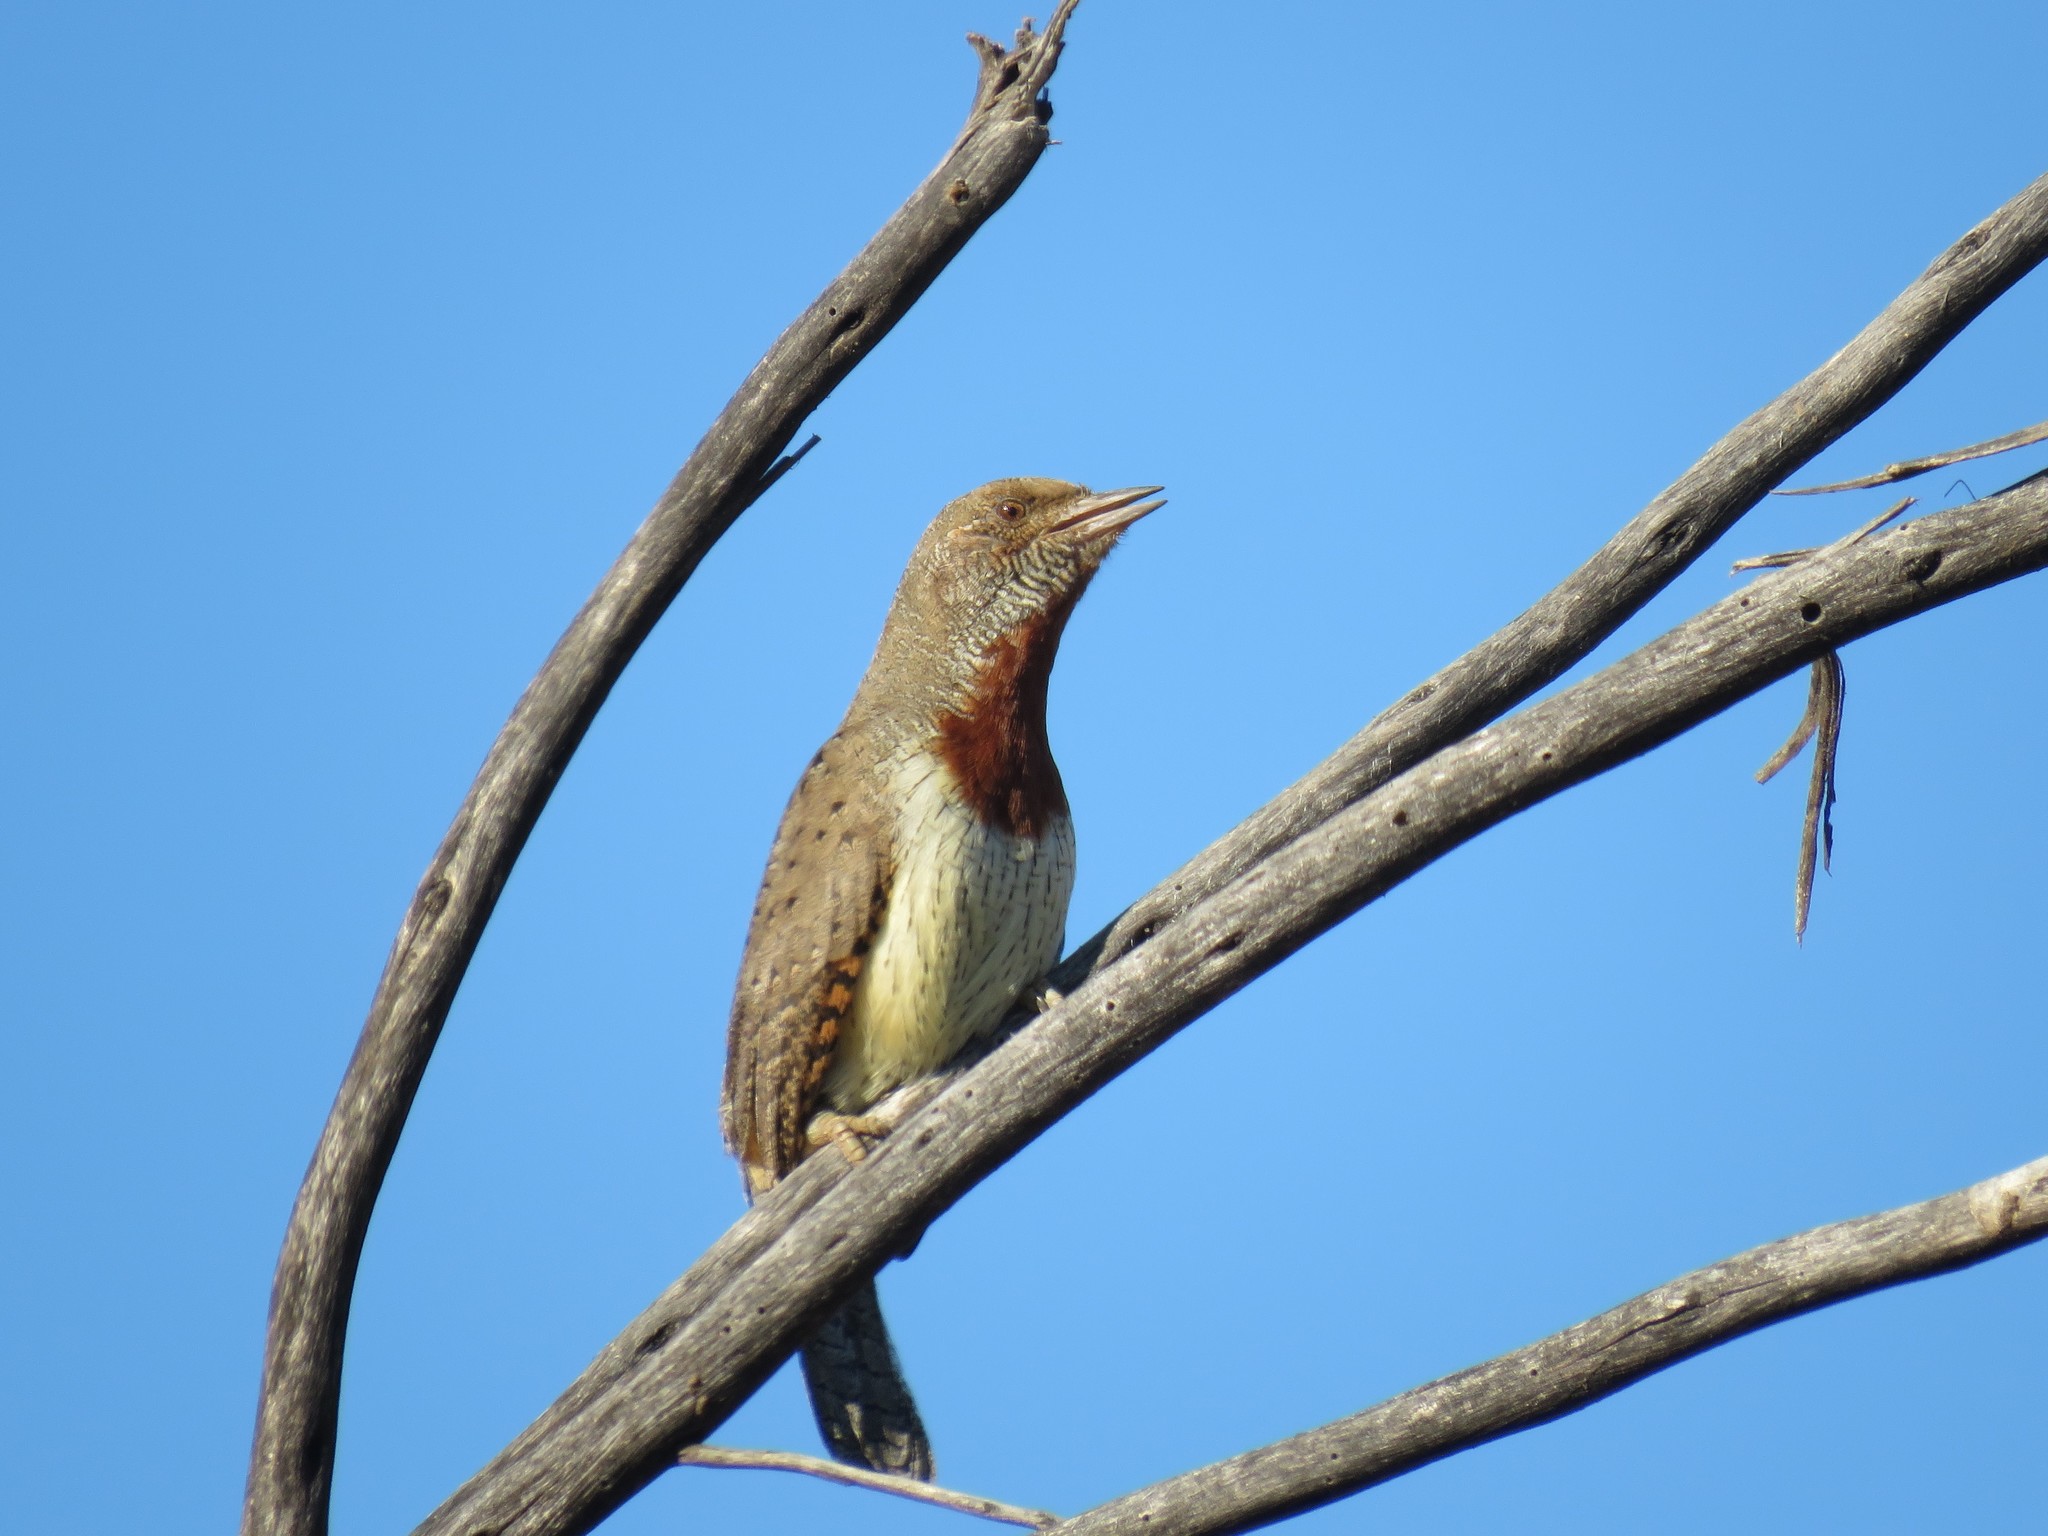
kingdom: Animalia
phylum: Chordata
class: Aves
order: Piciformes
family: Picidae
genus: Jynx
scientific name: Jynx ruficollis
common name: Red-throated wryneck
